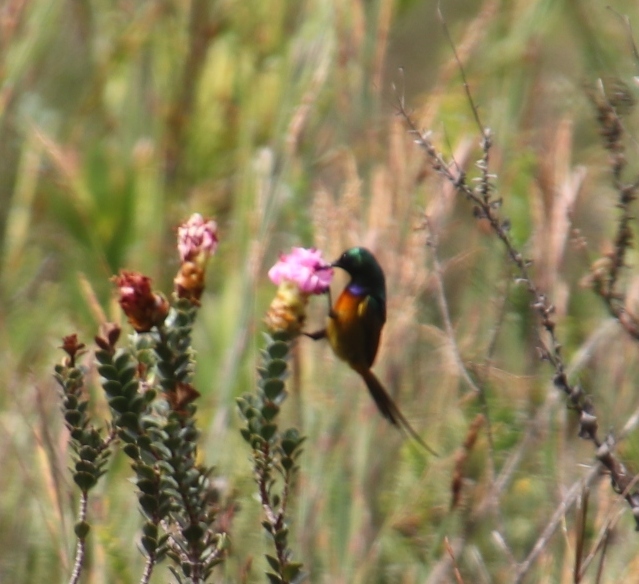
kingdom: Animalia
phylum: Chordata
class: Aves
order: Passeriformes
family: Nectariniidae
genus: Anthobaphes
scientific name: Anthobaphes violacea
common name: Orange-breasted sunbird
